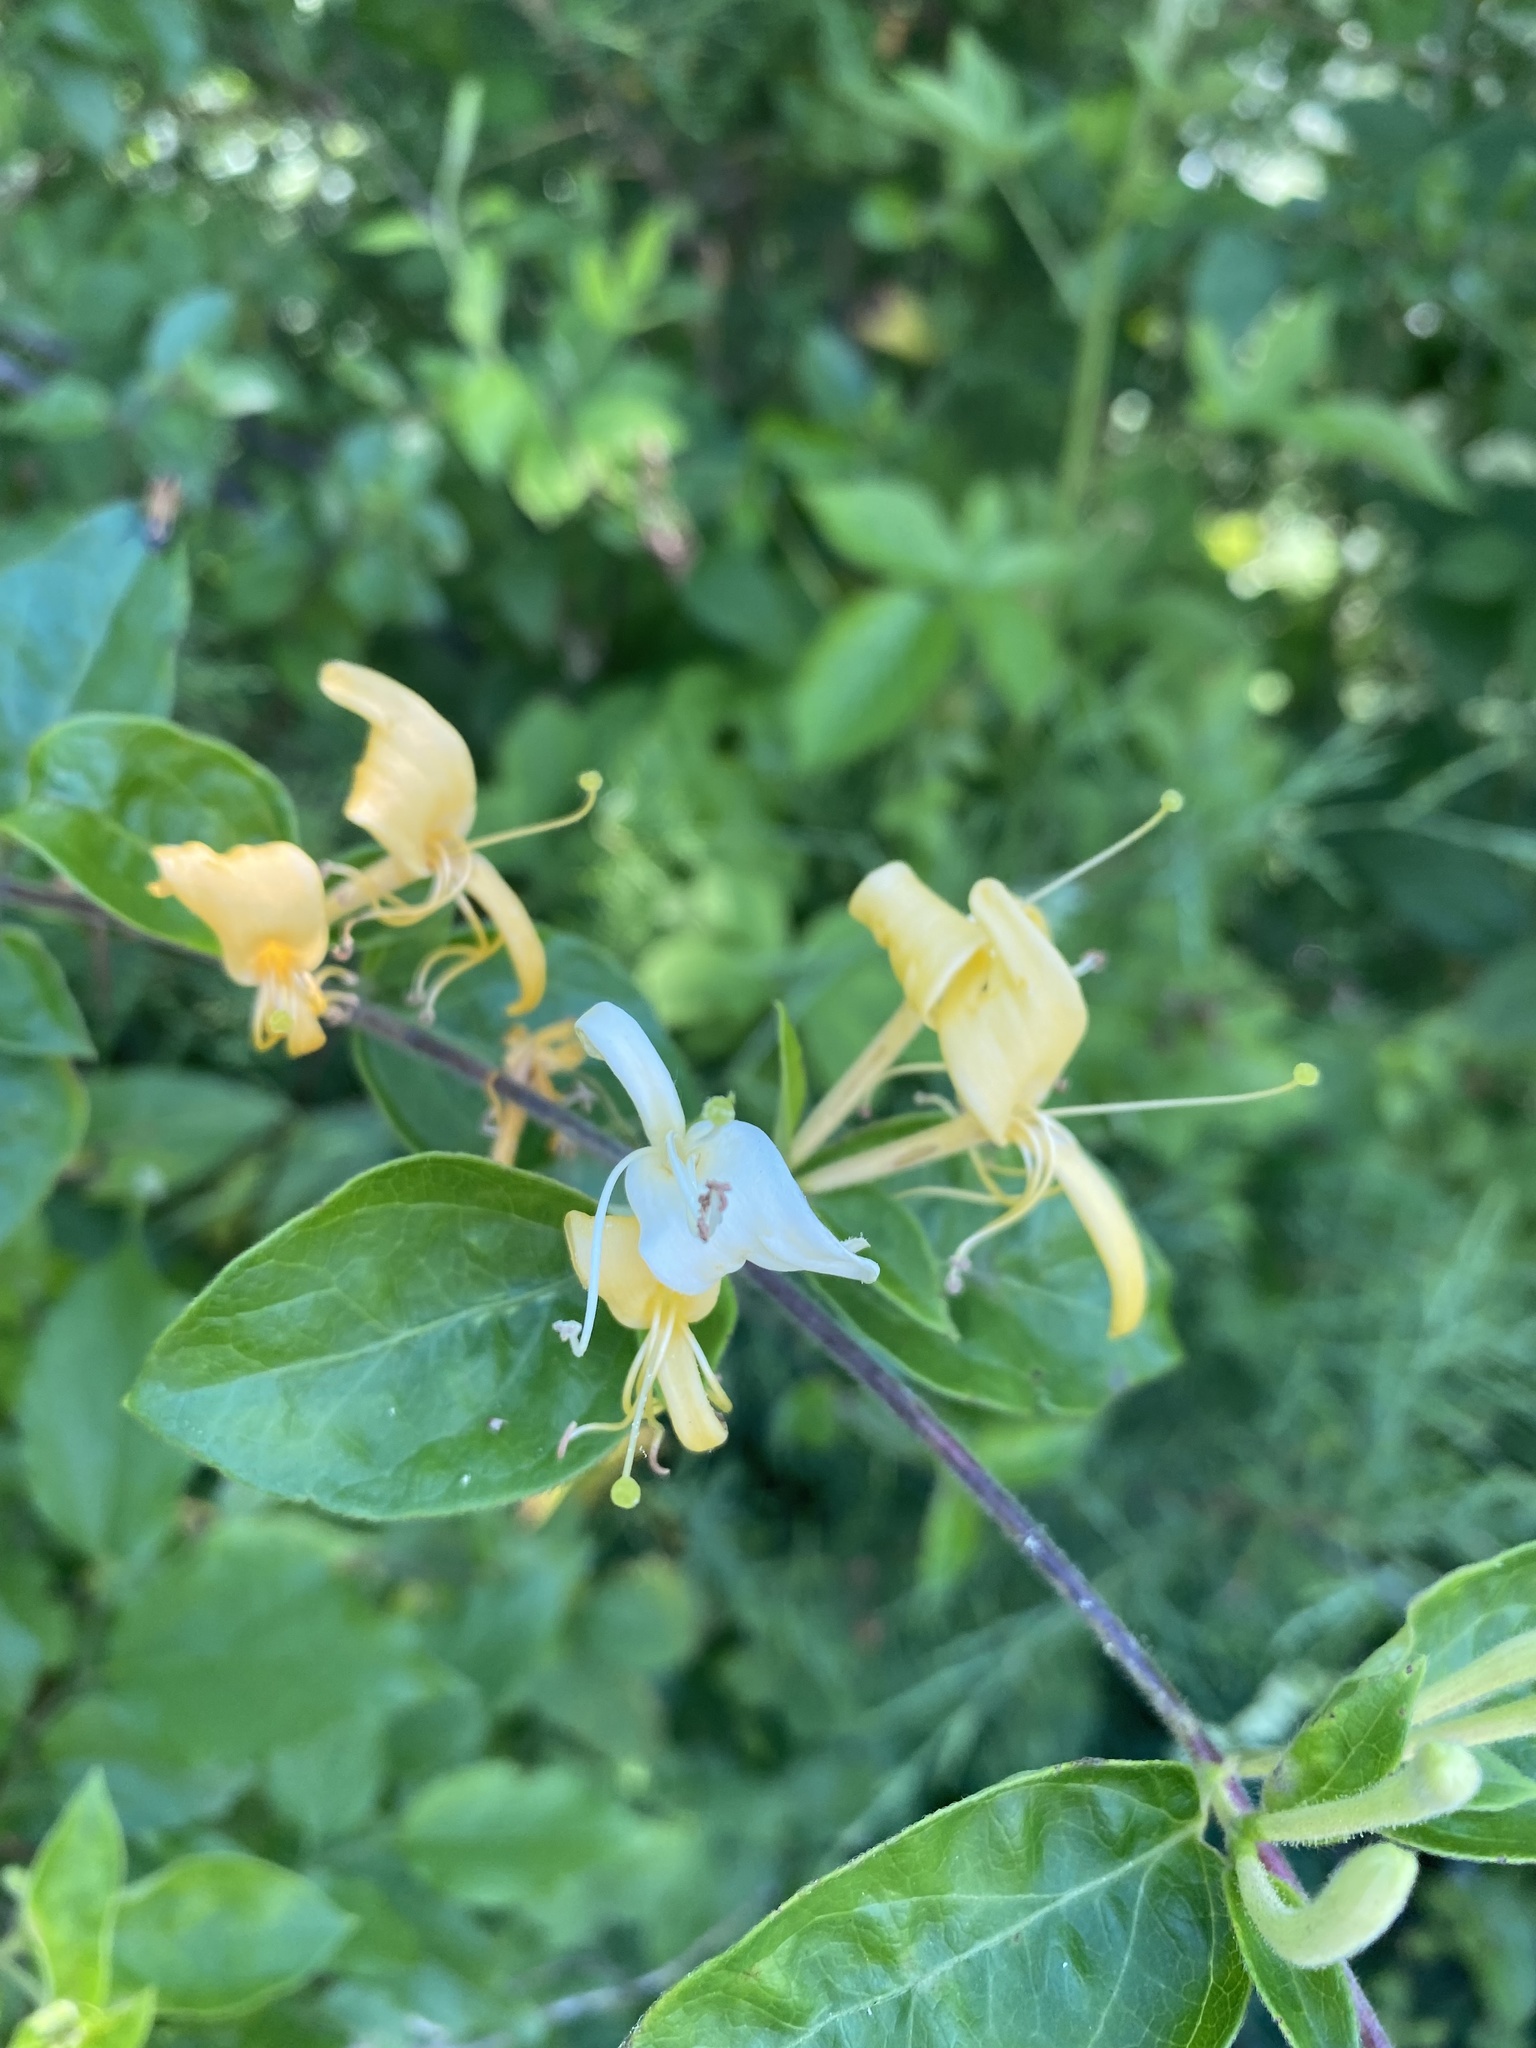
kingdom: Plantae
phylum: Tracheophyta
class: Magnoliopsida
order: Dipsacales
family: Caprifoliaceae
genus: Lonicera
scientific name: Lonicera japonica
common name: Japanese honeysuckle
